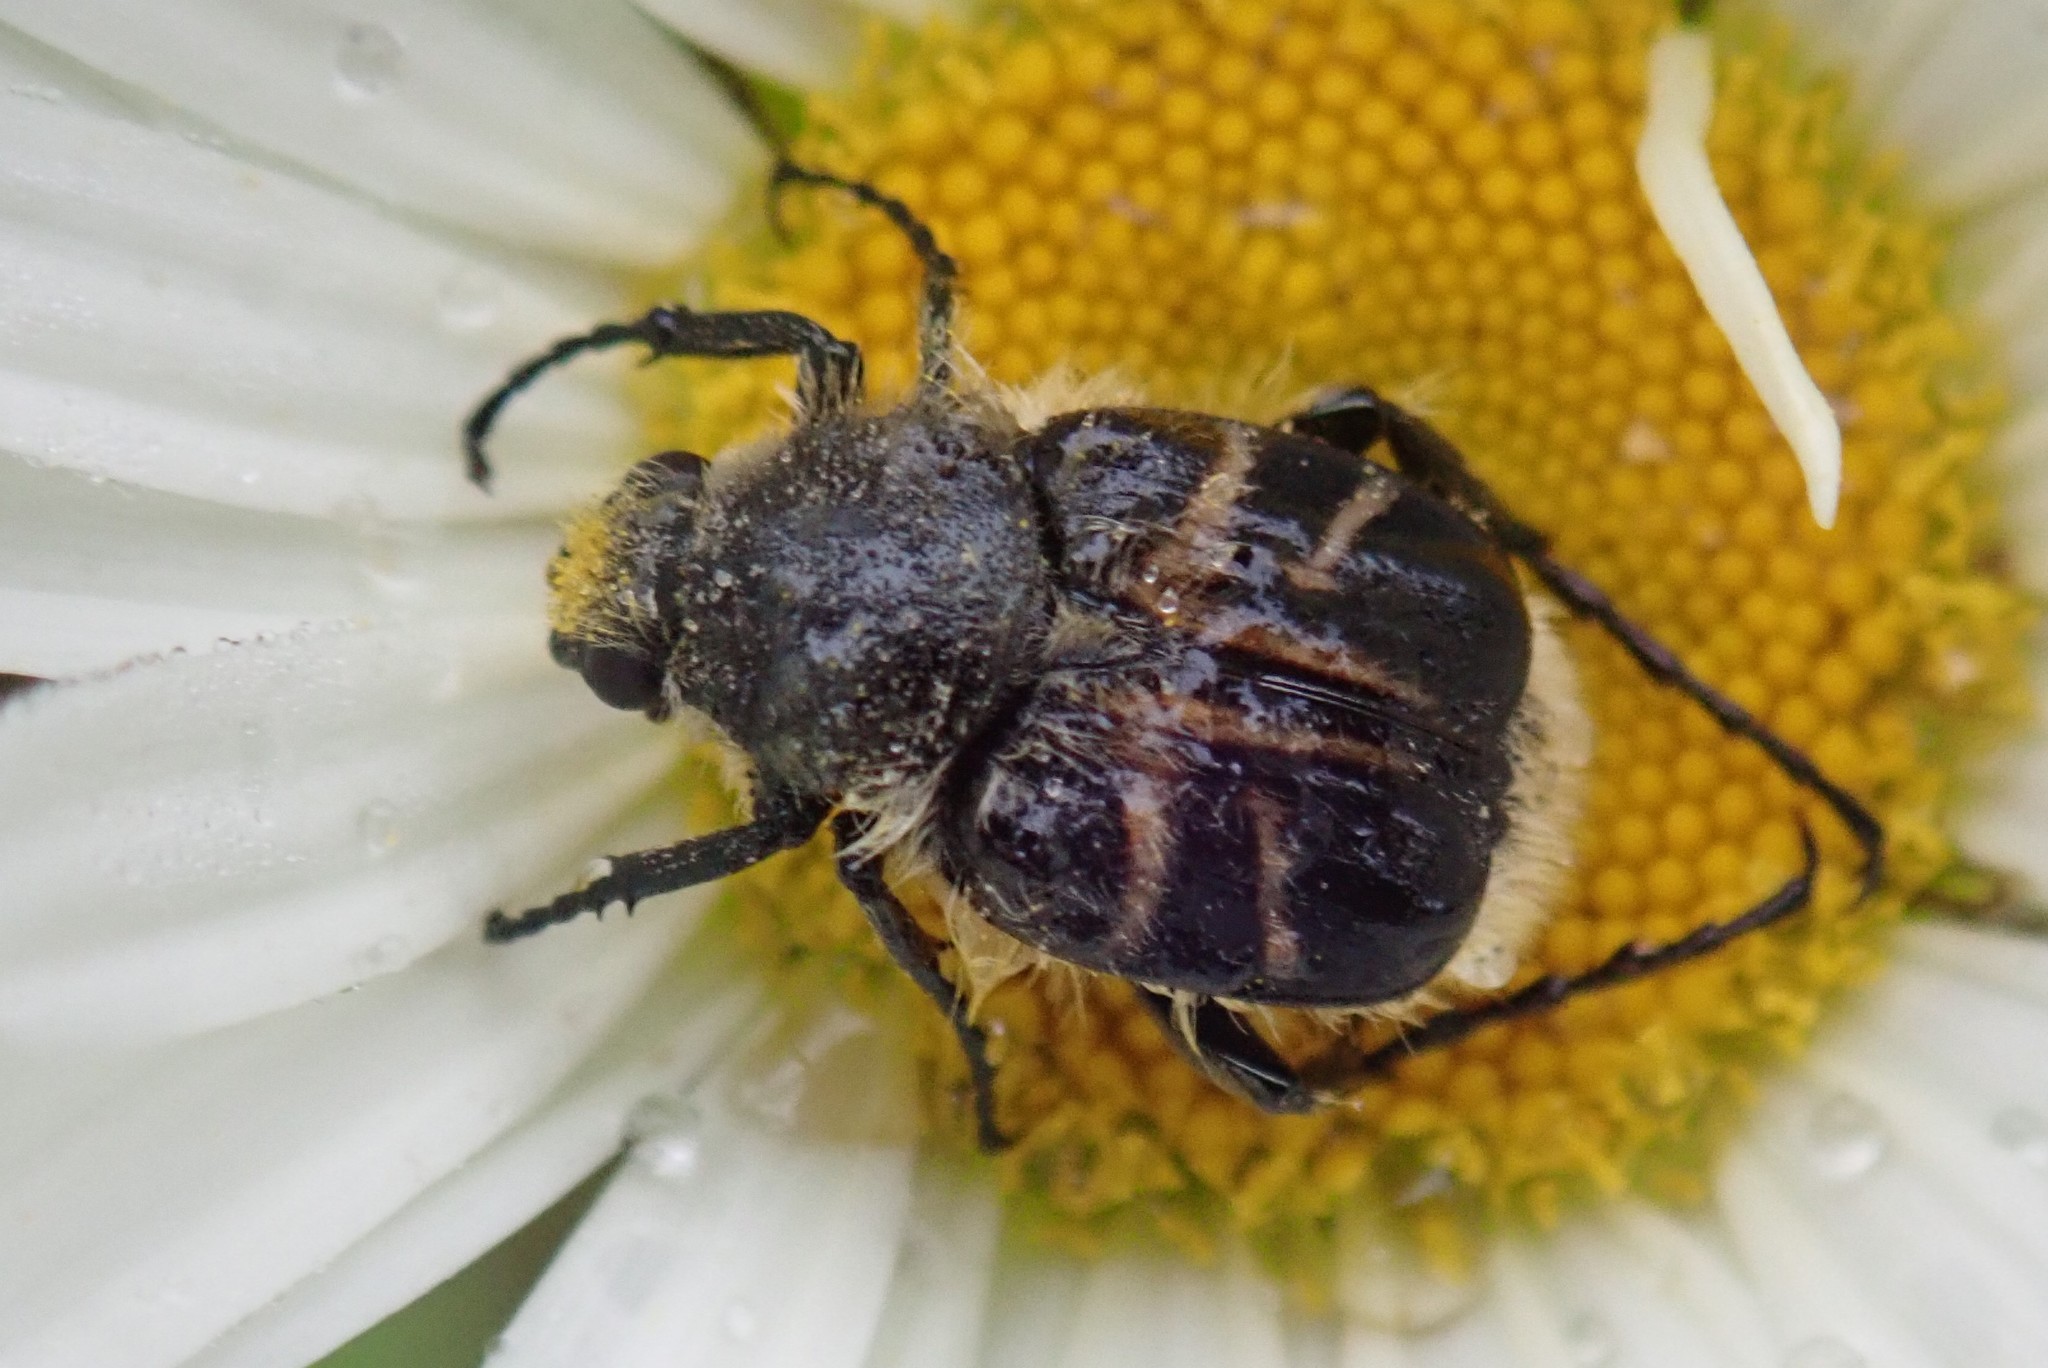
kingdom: Animalia
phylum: Arthropoda
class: Insecta
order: Coleoptera
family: Scarabaeidae
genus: Trichiotinus
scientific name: Trichiotinus assimilis
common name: Bee-mimic beetle
